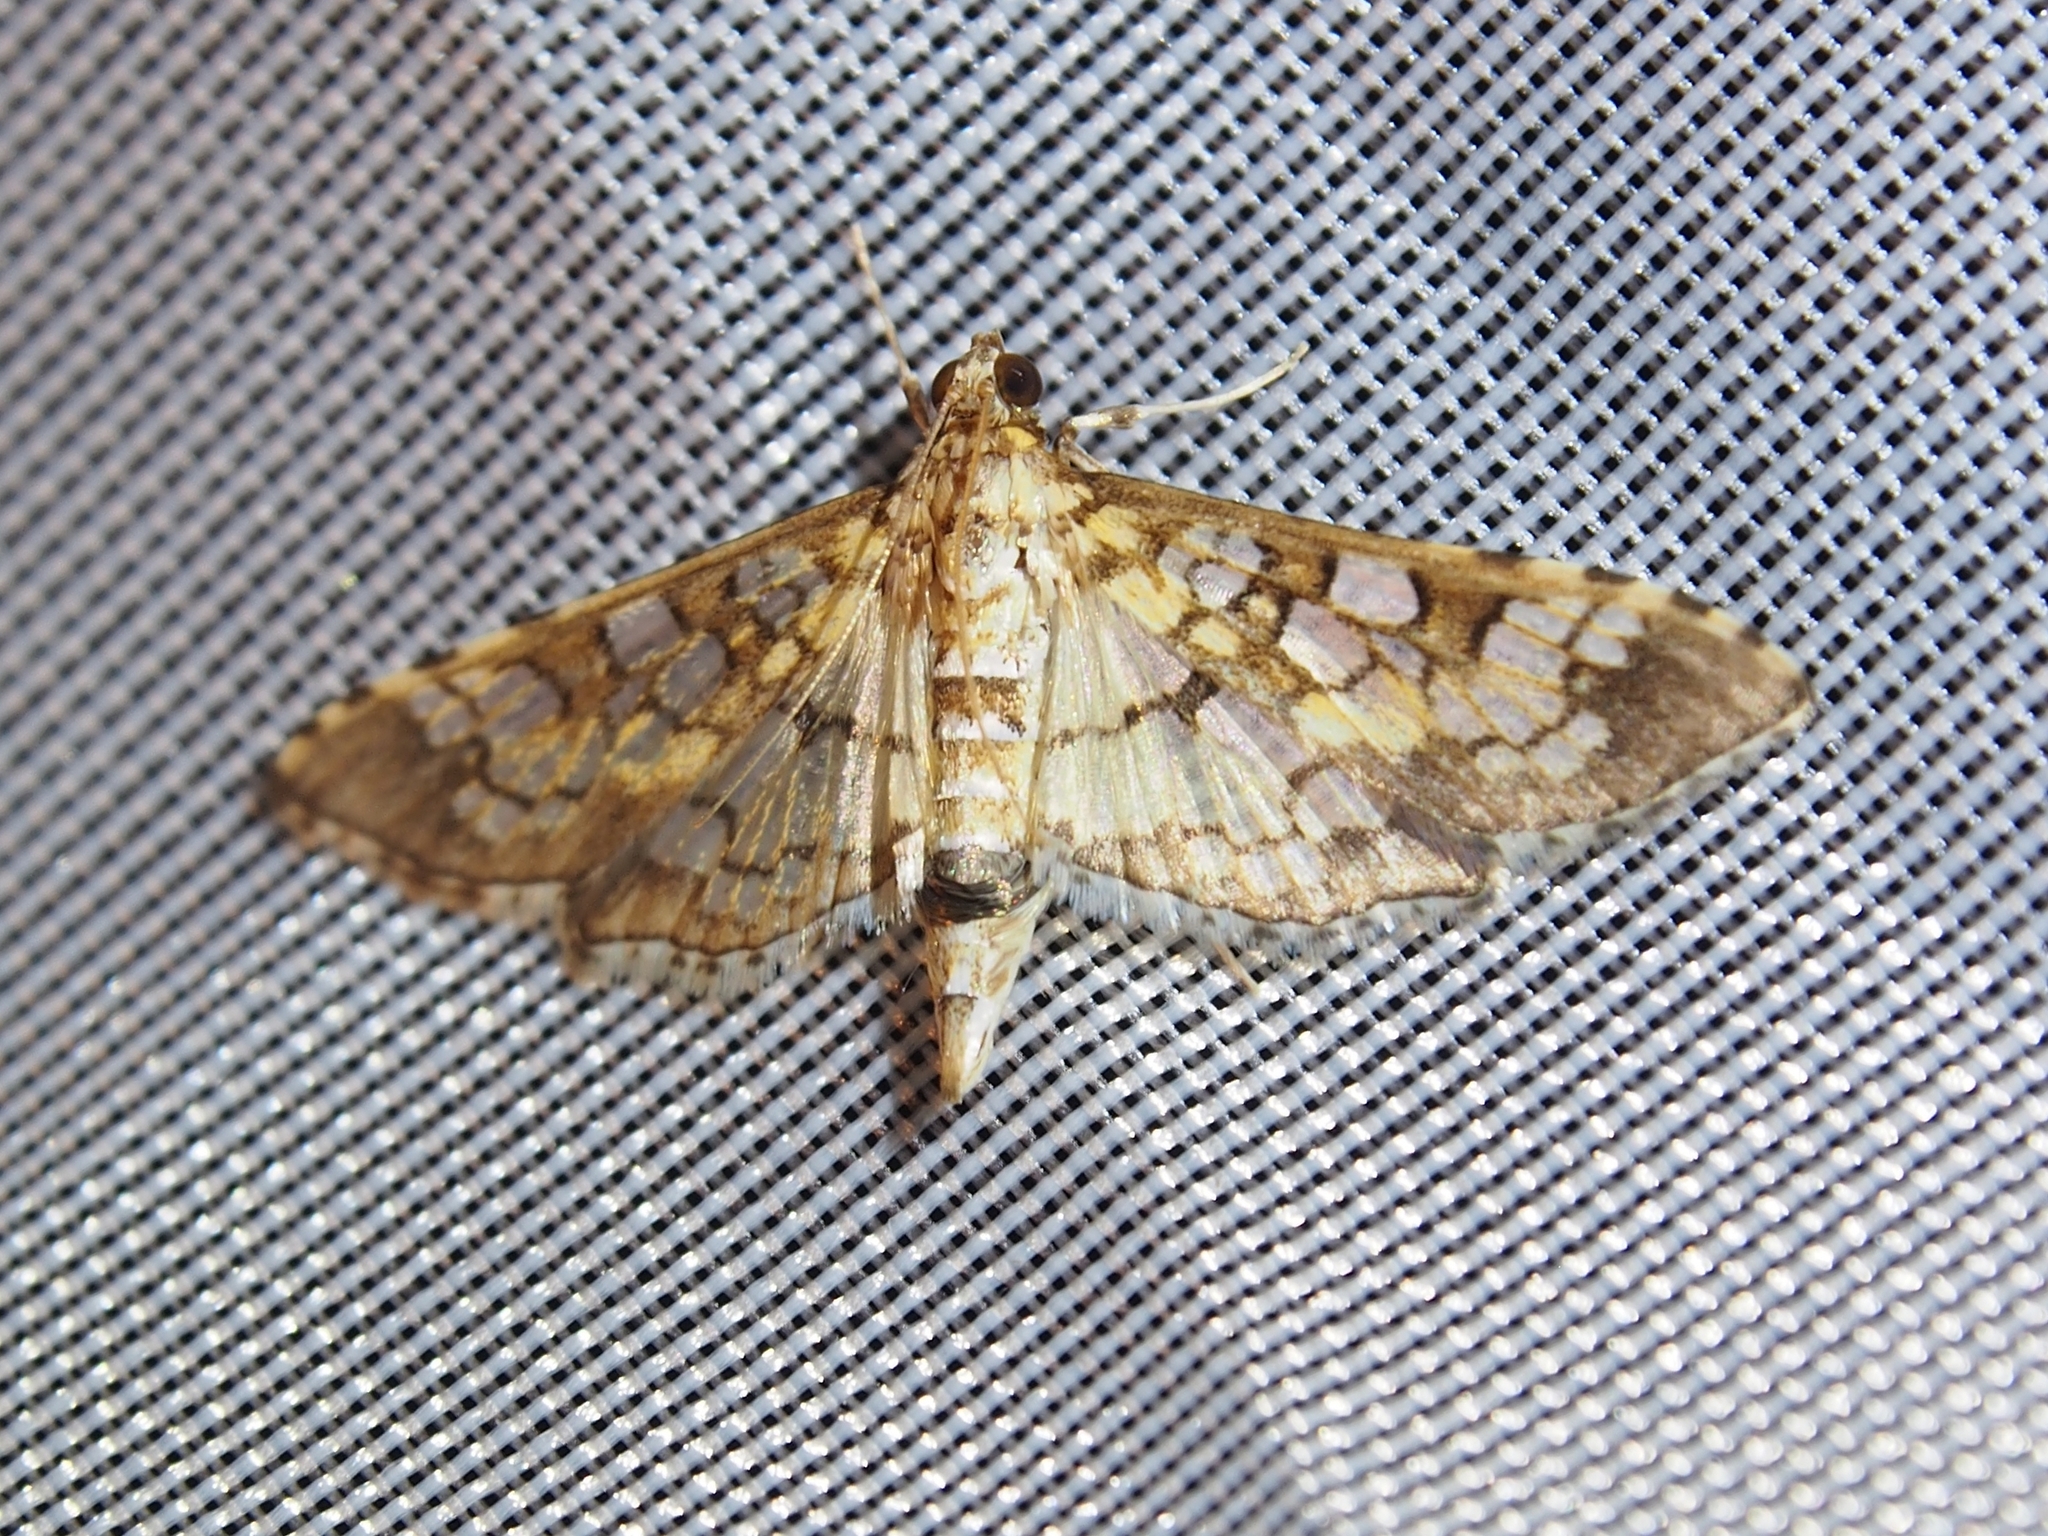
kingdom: Animalia
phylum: Arthropoda
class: Insecta
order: Lepidoptera
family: Crambidae
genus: Samea
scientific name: Samea ecclesialis
